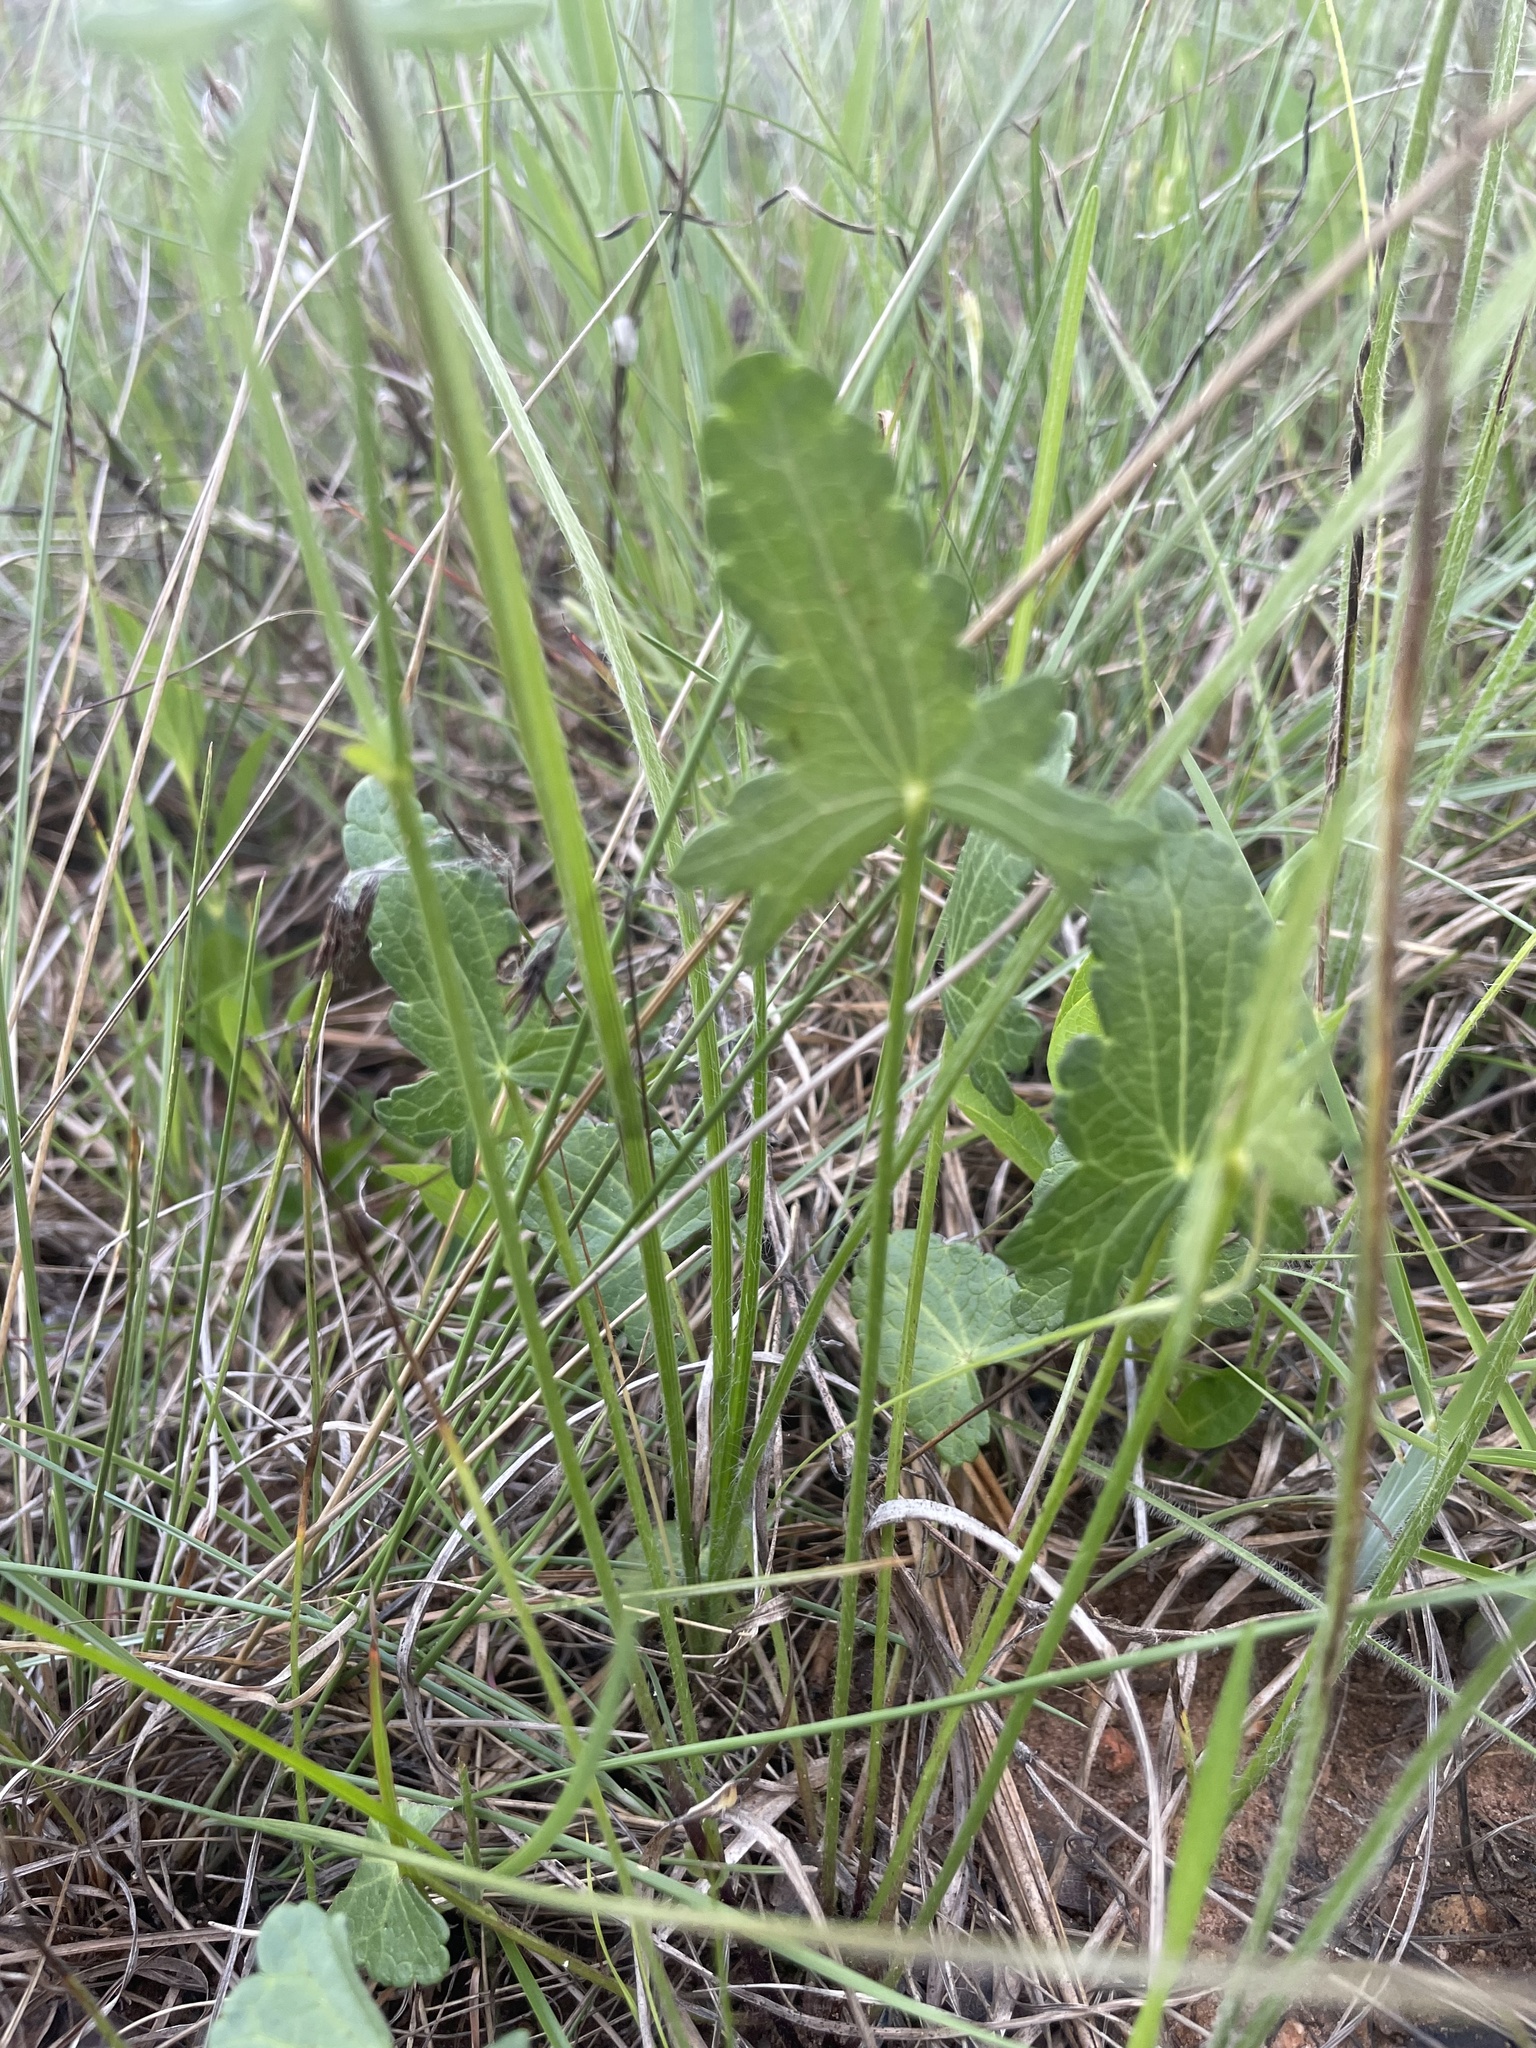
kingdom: Plantae
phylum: Tracheophyta
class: Magnoliopsida
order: Malvales
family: Malvaceae
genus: Callirhoe
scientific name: Callirhoe alcaeoides
